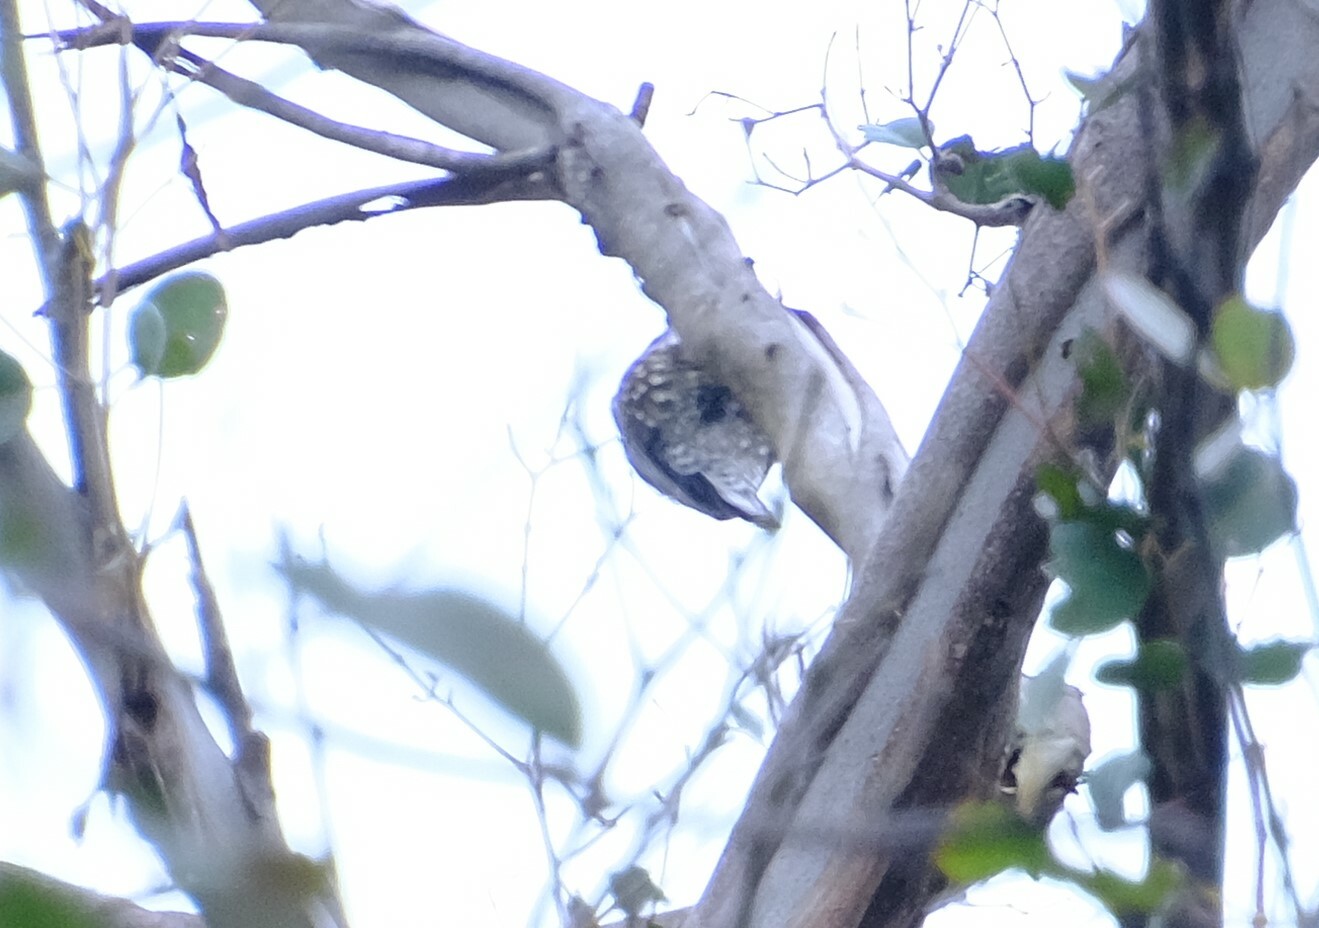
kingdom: Animalia
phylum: Chordata
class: Aves
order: Passeriformes
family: Climacteridae
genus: Cormobates
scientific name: Cormobates leucophaea
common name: White-throated treecreeper
